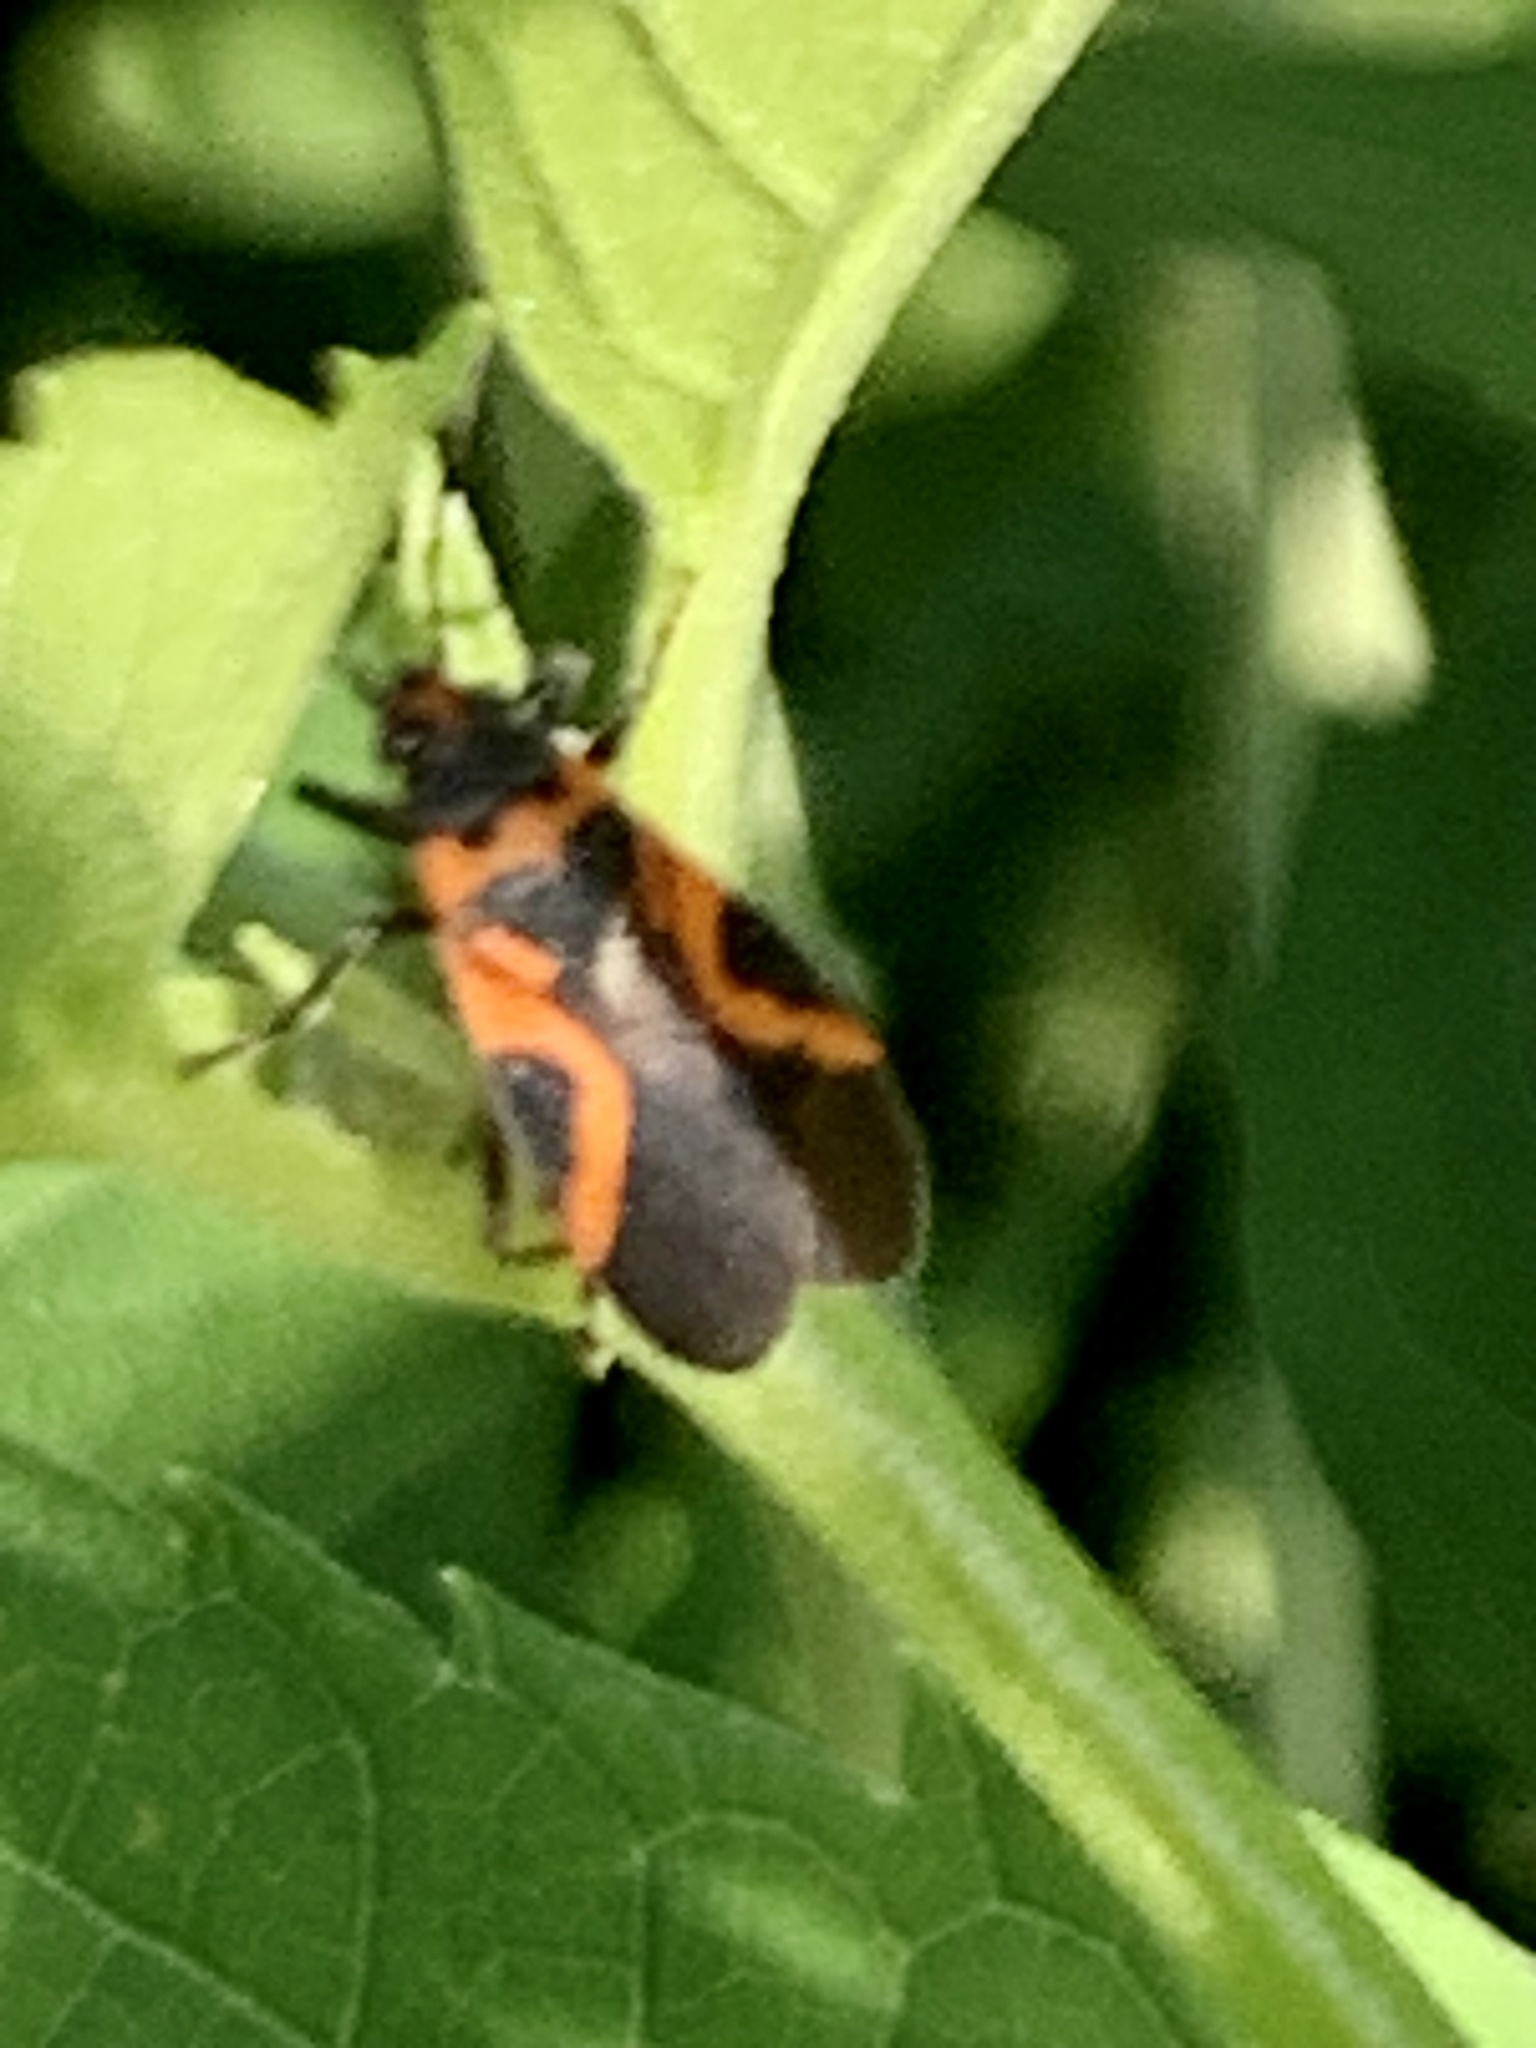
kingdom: Animalia
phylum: Arthropoda
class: Insecta
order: Hemiptera
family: Lygaeidae
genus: Lygaeus
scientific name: Lygaeus turcicus
